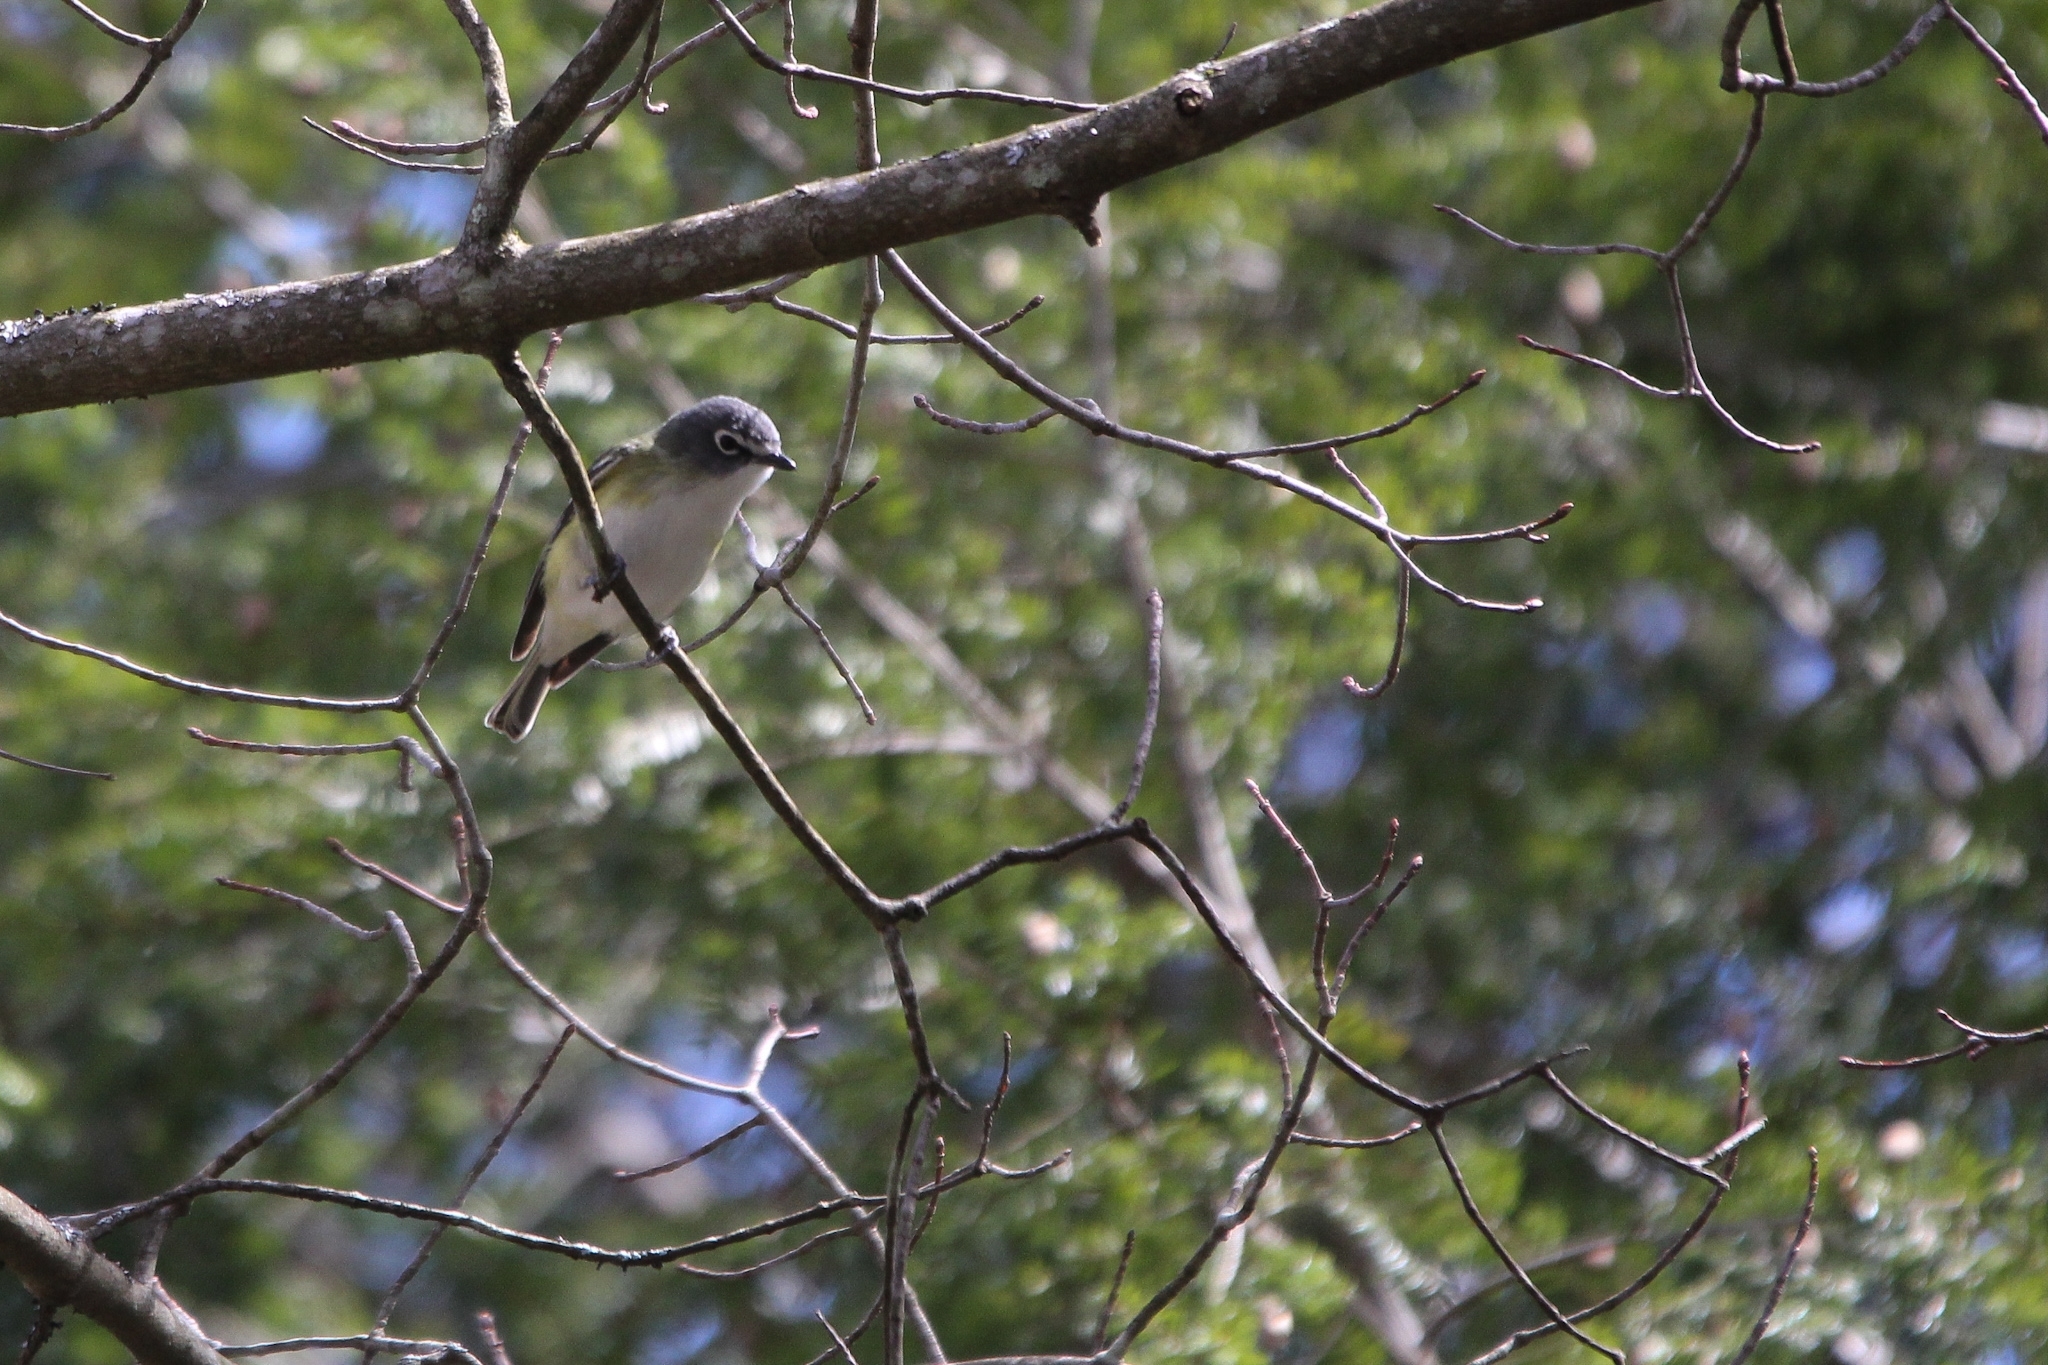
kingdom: Animalia
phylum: Chordata
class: Aves
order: Passeriformes
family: Vireonidae
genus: Vireo
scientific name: Vireo solitarius
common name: Blue-headed vireo
